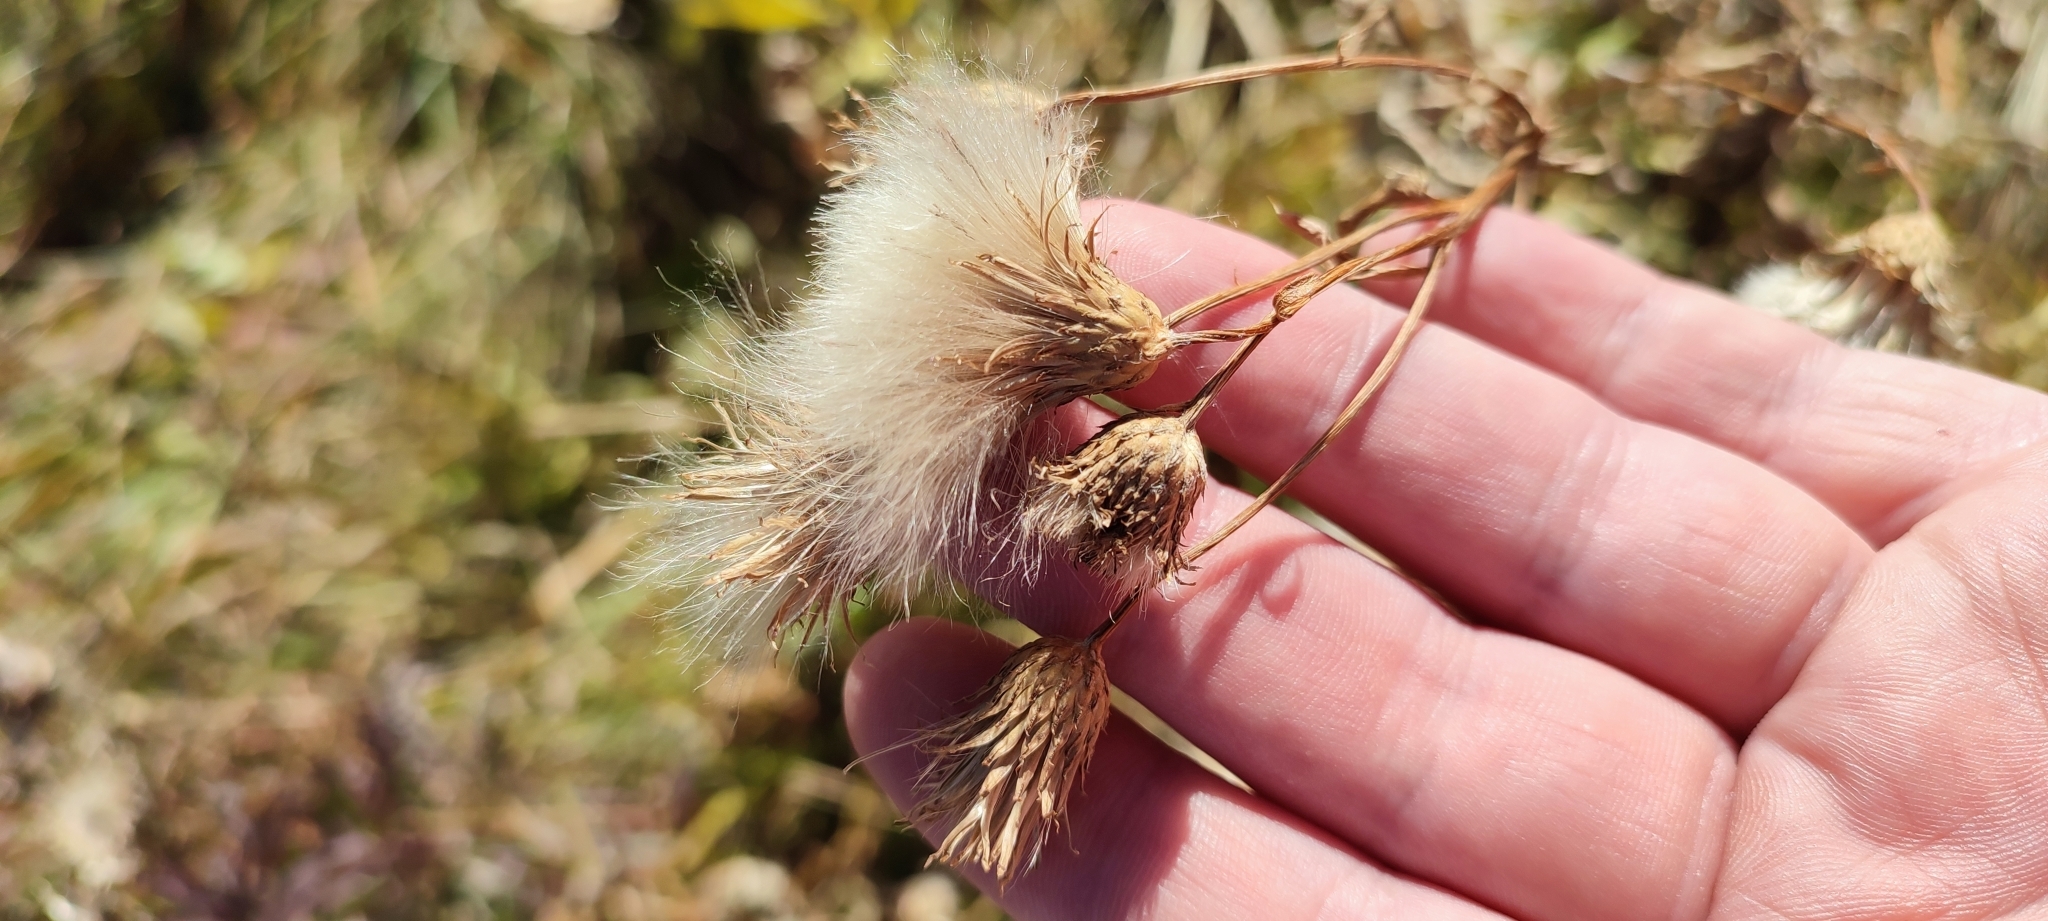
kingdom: Plantae
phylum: Tracheophyta
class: Magnoliopsida
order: Asterales
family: Asteraceae
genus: Centaurea
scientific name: Centaurea scabiosa
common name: Greater knapweed
